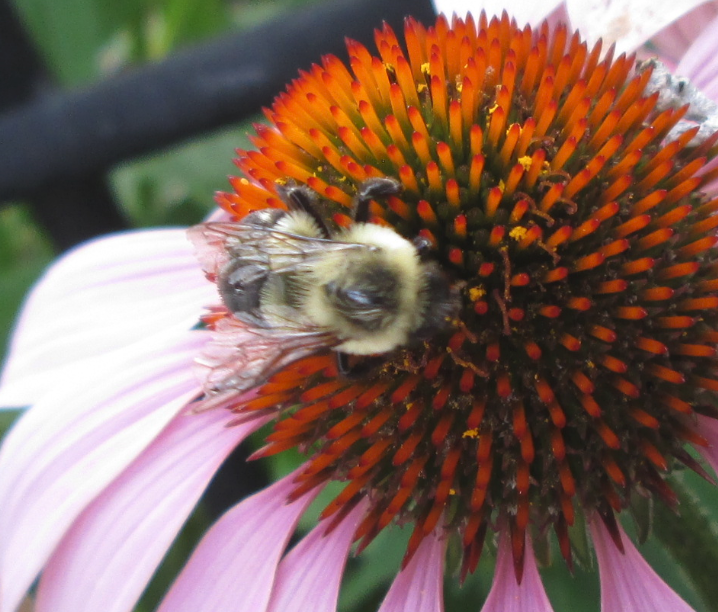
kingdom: Animalia
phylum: Arthropoda
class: Insecta
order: Hymenoptera
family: Apidae
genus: Bombus
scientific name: Bombus impatiens
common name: Common eastern bumble bee
